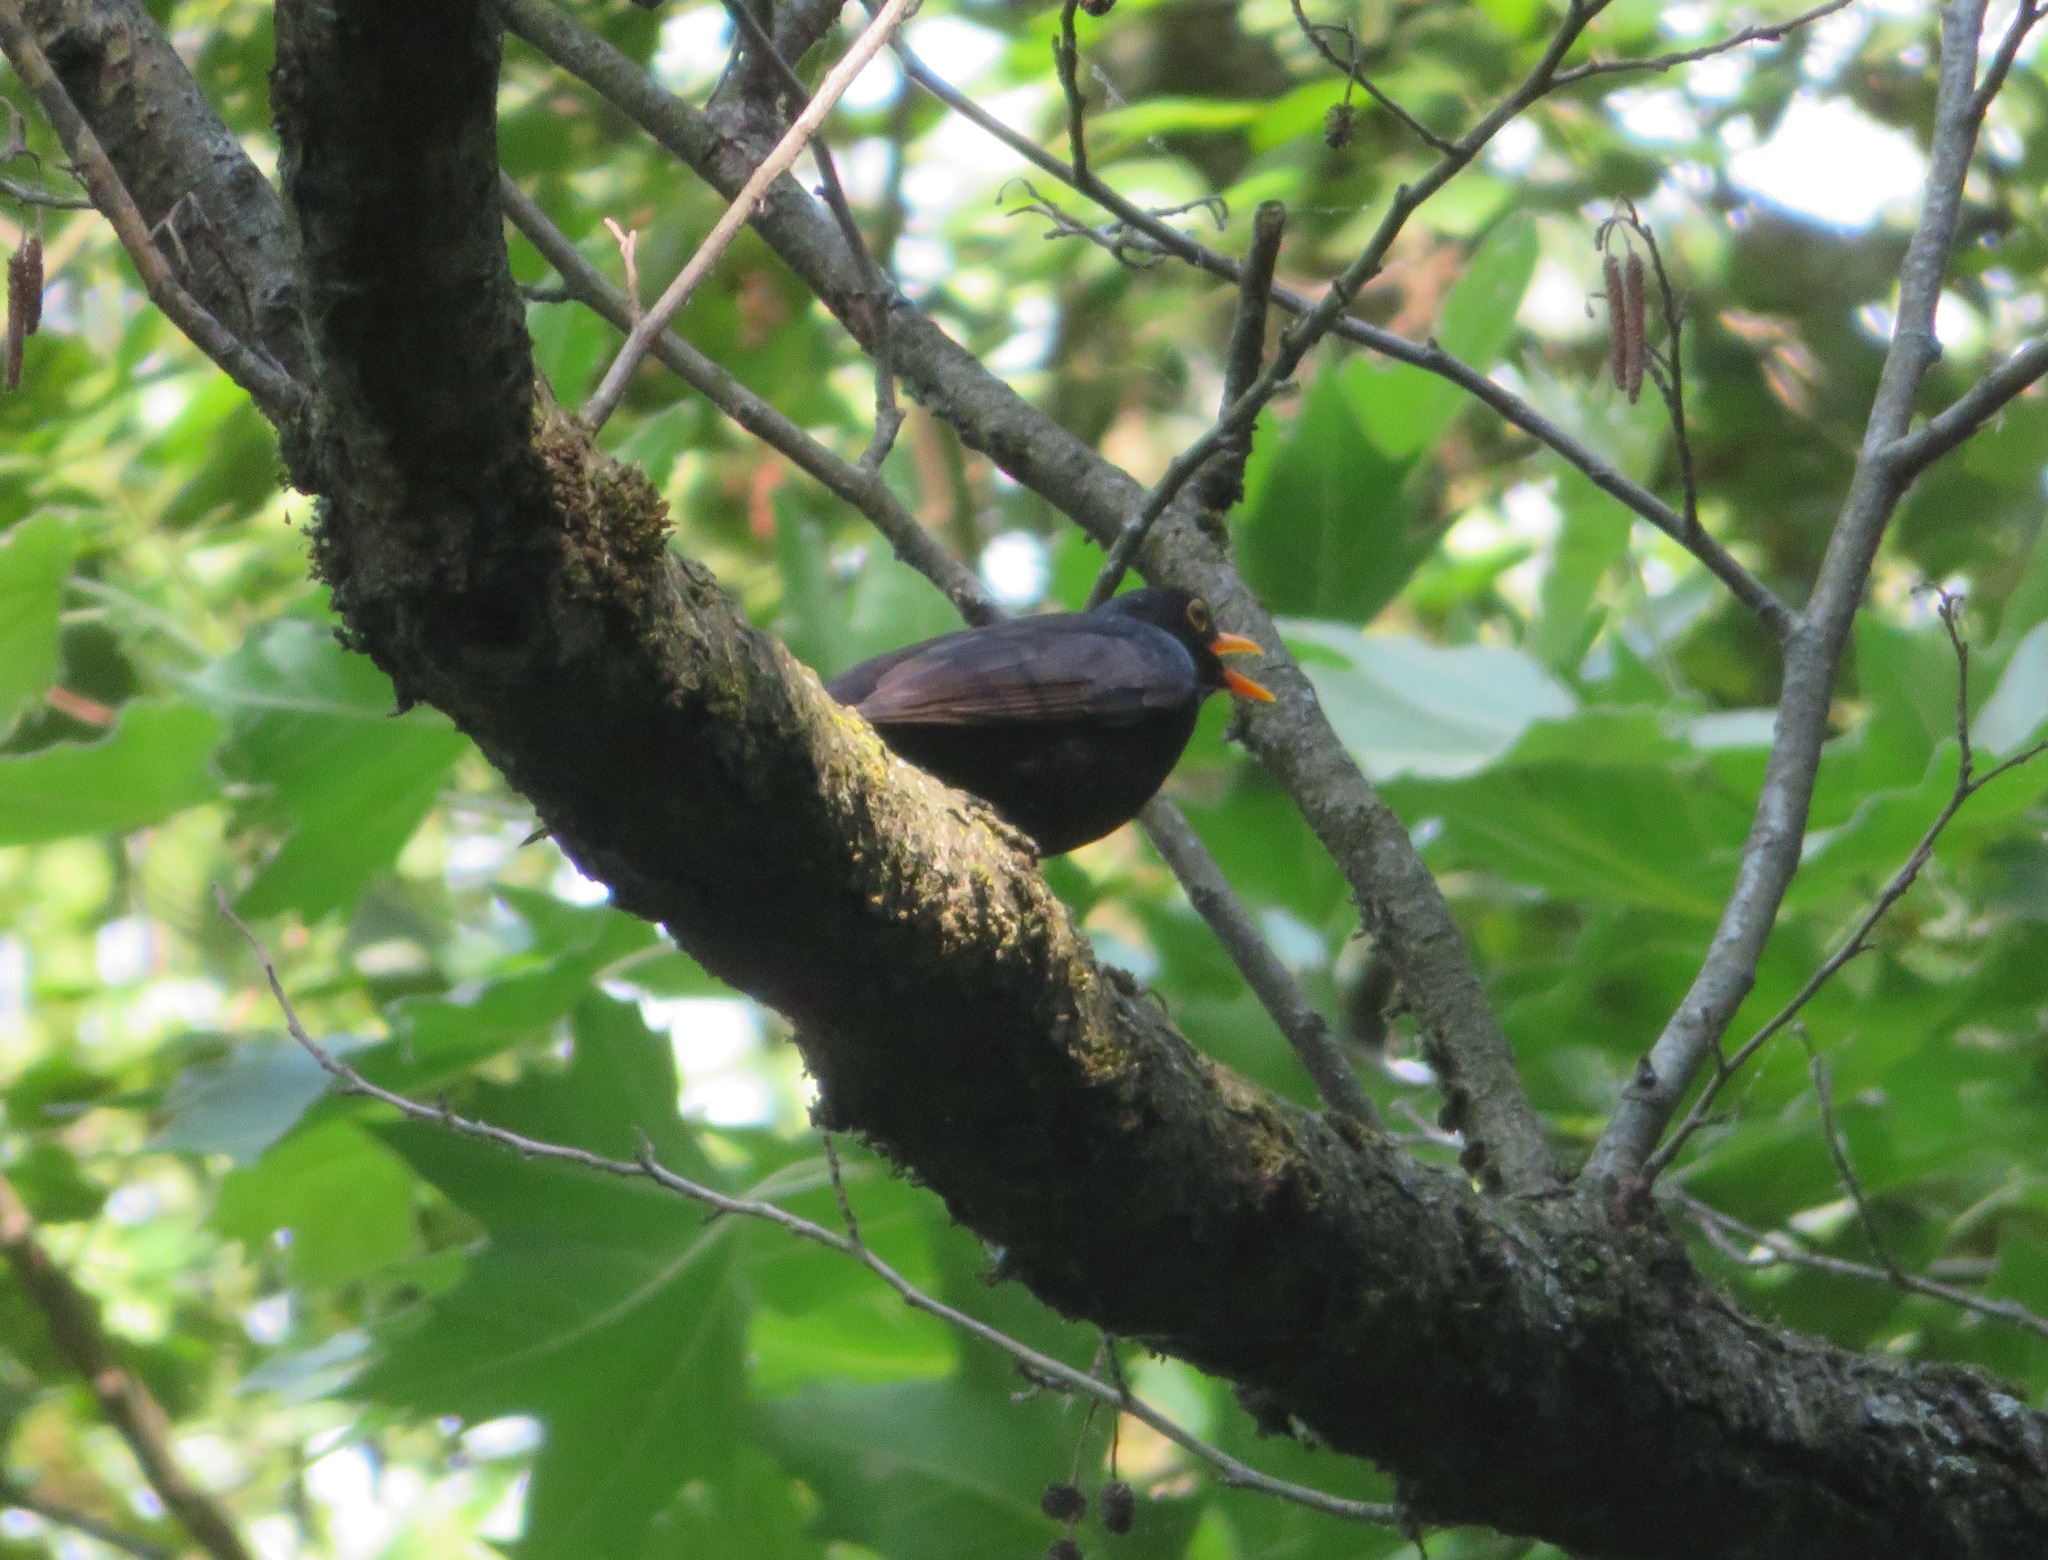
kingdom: Animalia
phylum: Chordata
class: Aves
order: Passeriformes
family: Turdidae
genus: Turdus
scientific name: Turdus merula
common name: Common blackbird
